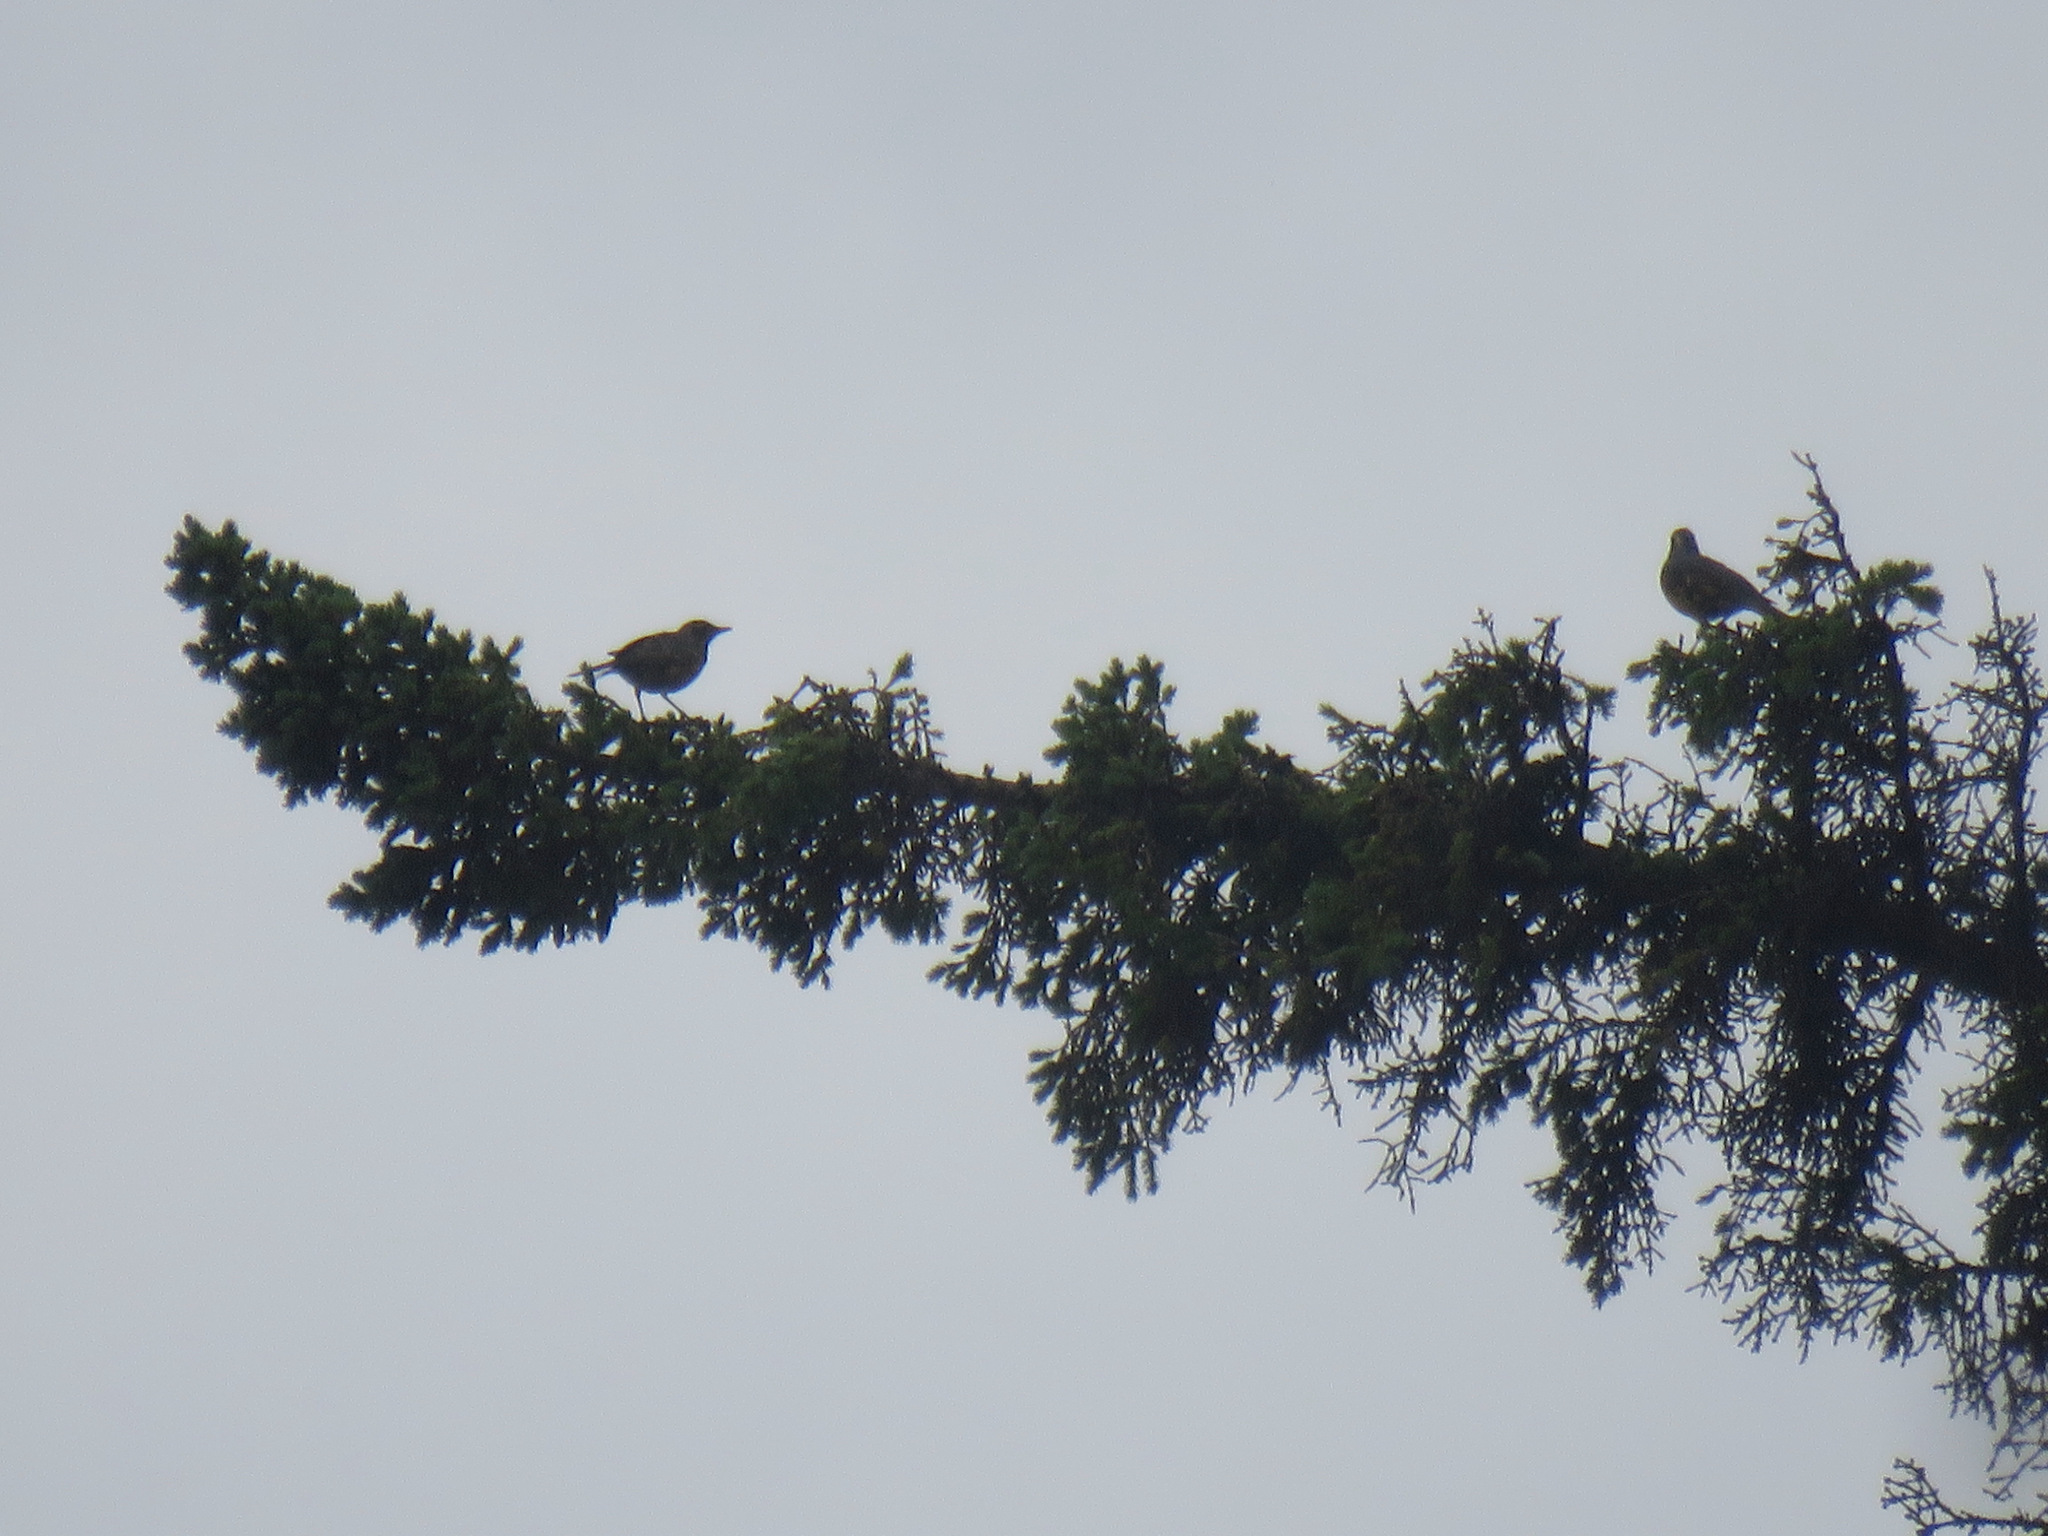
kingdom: Animalia
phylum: Chordata
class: Aves
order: Passeriformes
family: Turdidae
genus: Ixoreus
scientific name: Ixoreus naevius
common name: Varied thrush
